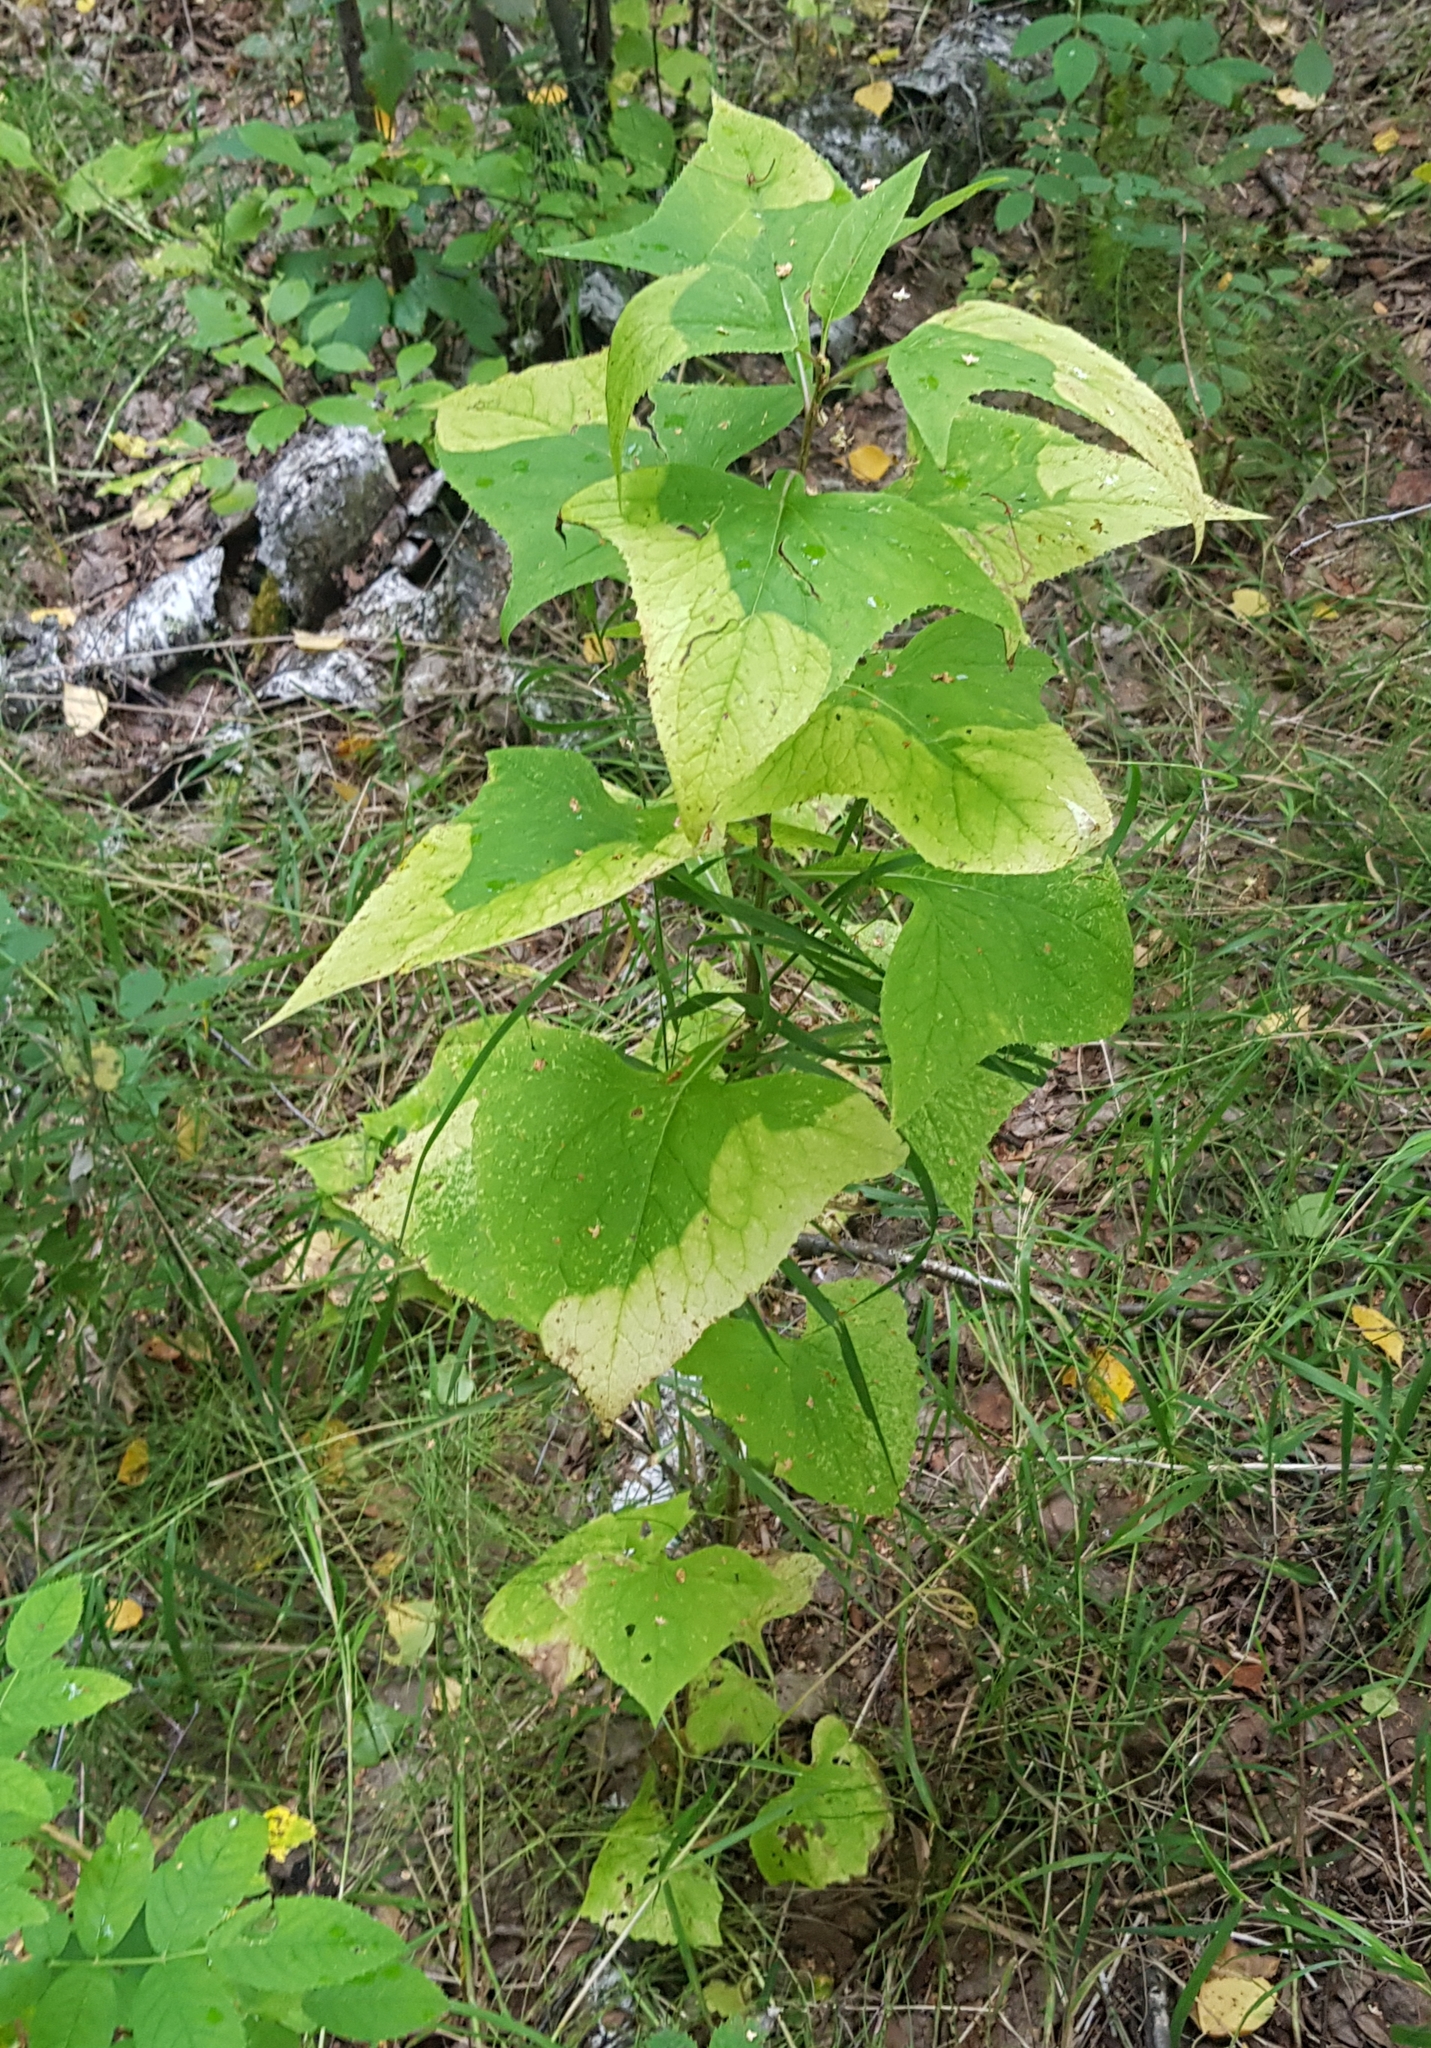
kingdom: Plantae
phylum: Tracheophyta
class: Magnoliopsida
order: Asterales
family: Asteraceae
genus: Parasenecio
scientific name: Parasenecio hastatus
